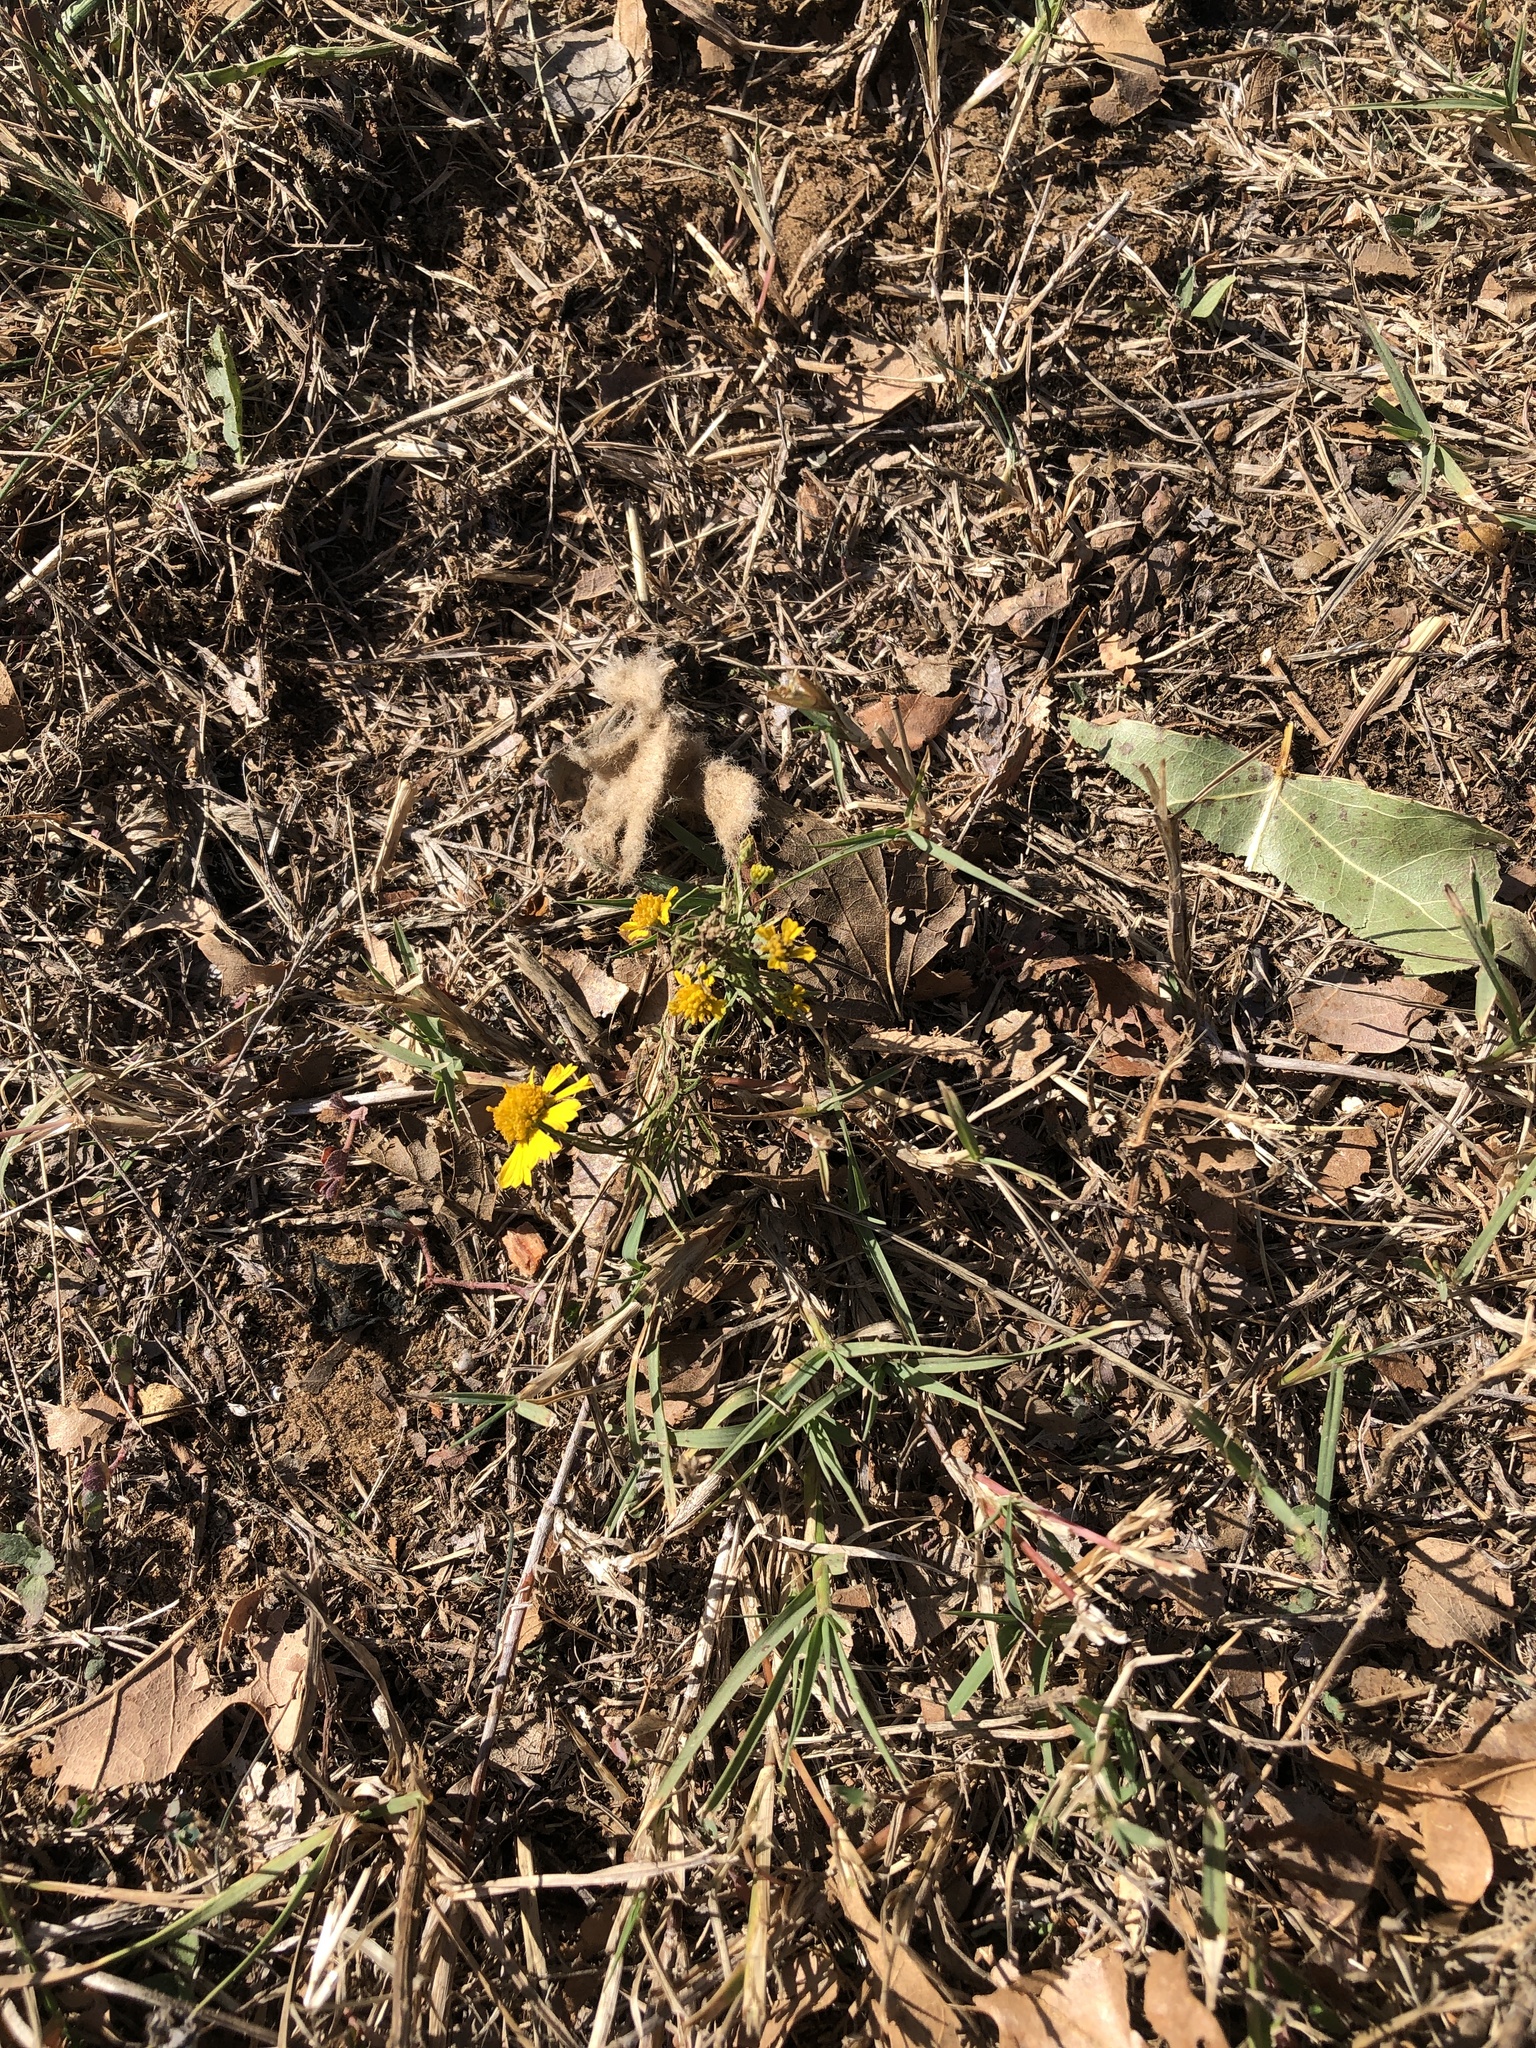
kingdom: Plantae
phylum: Tracheophyta
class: Magnoliopsida
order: Asterales
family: Asteraceae
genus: Helenium
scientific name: Helenium amarum
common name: Bitter sneezeweed
